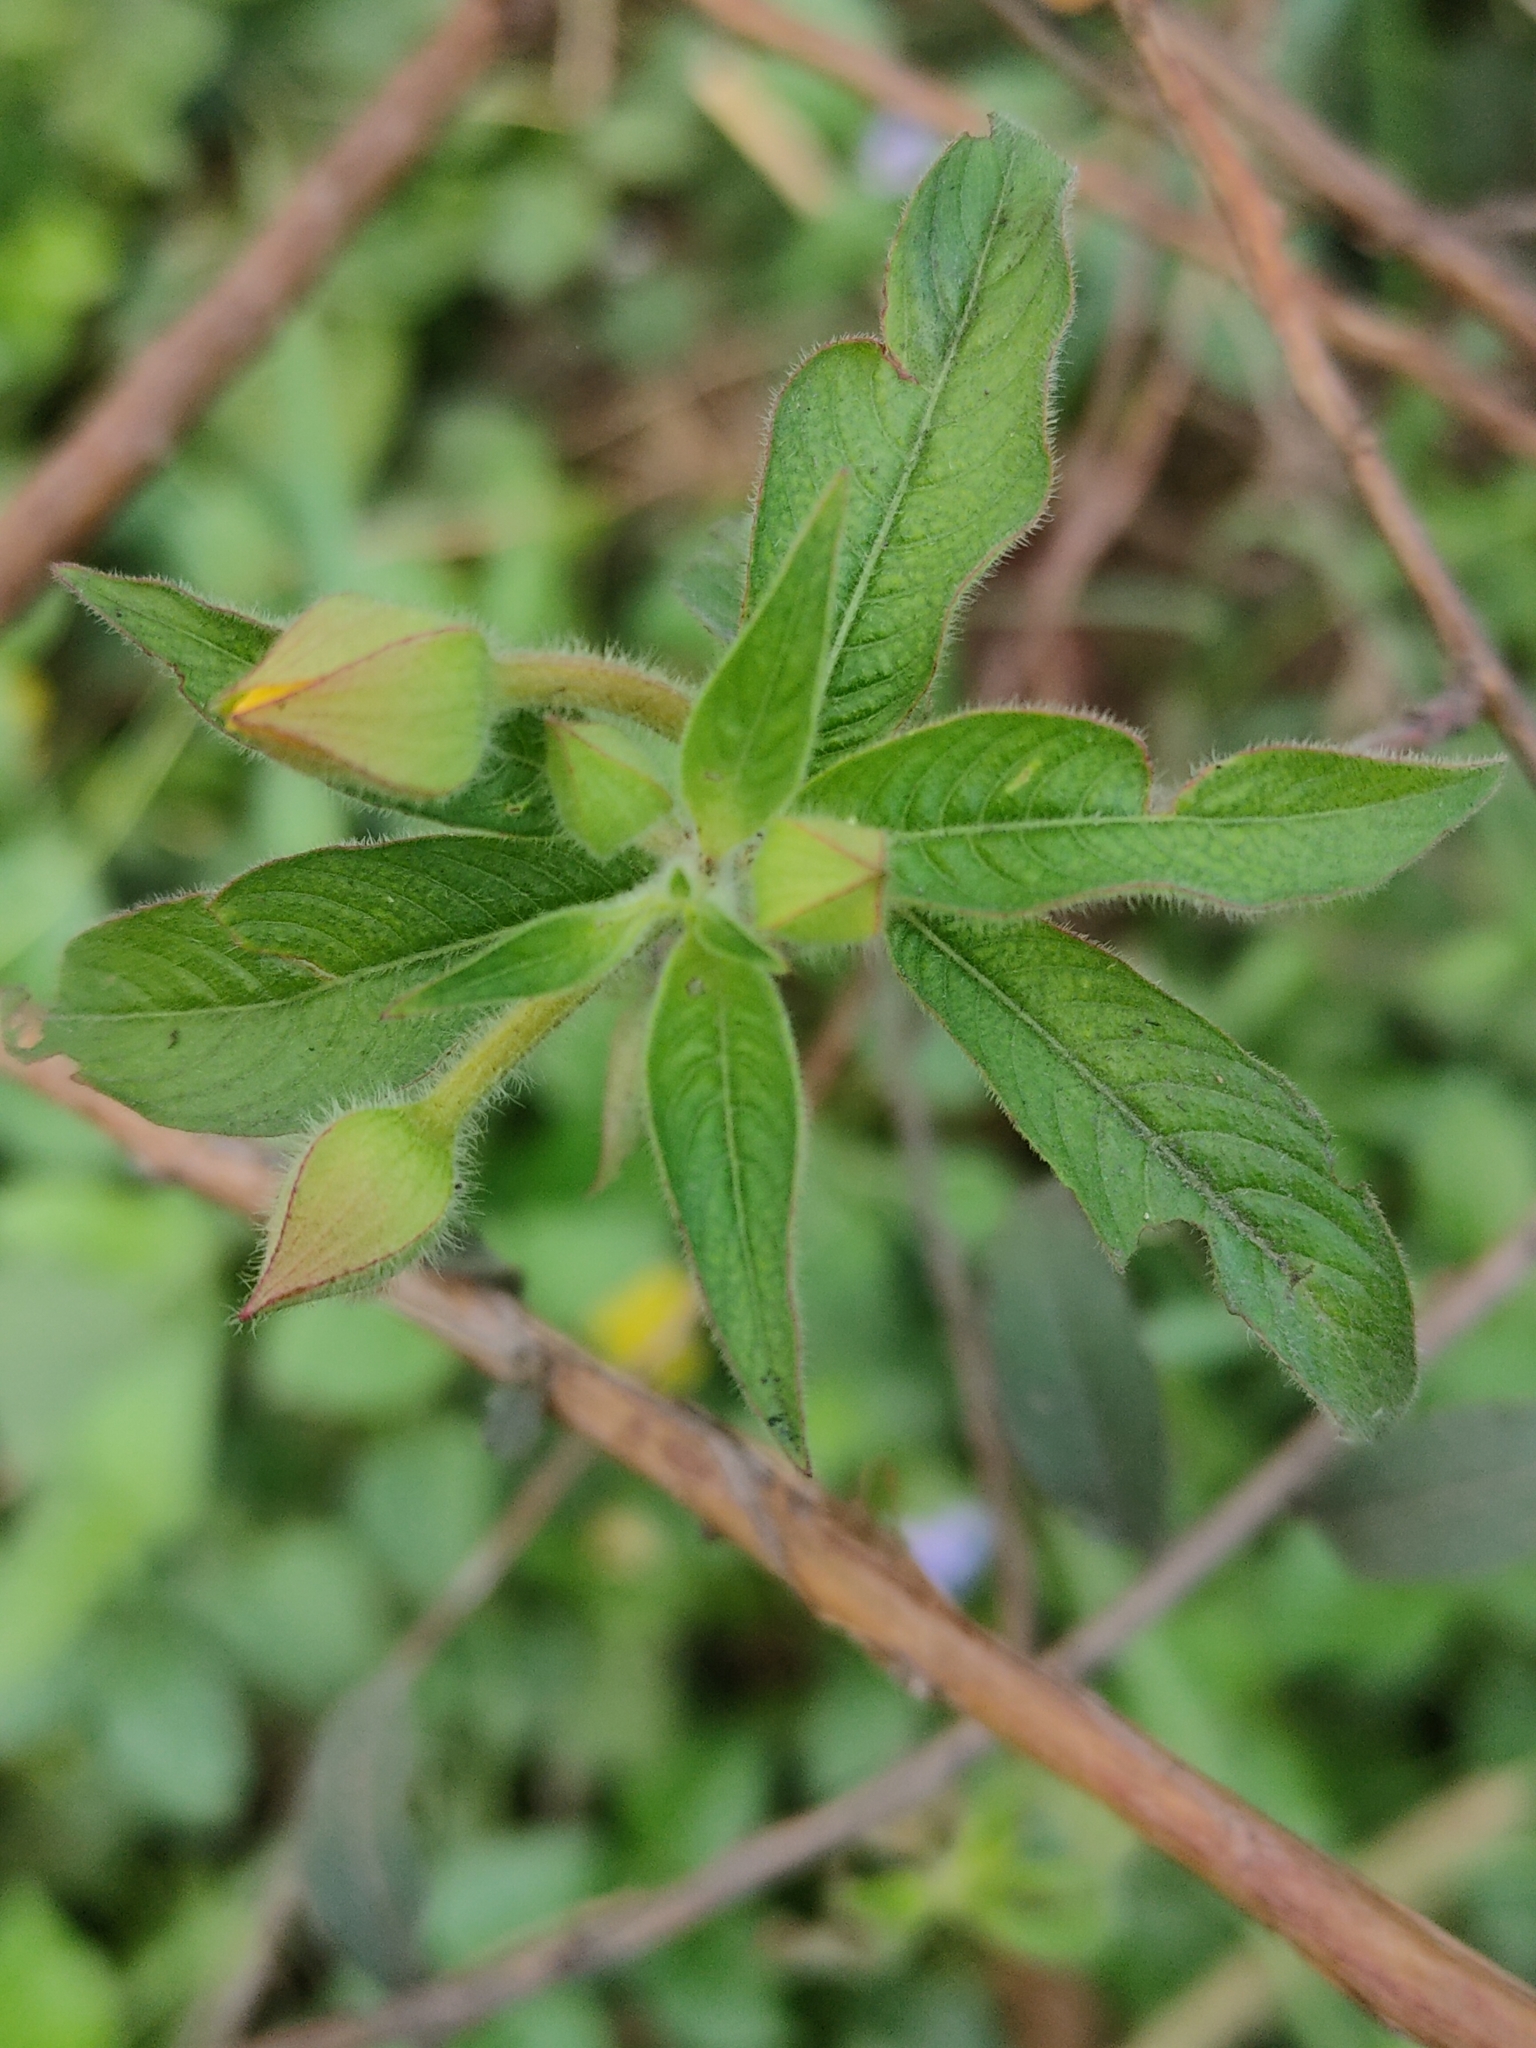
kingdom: Plantae
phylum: Tracheophyta
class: Magnoliopsida
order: Myrtales
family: Onagraceae
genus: Ludwigia
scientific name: Ludwigia octovalvis
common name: Water-primrose
